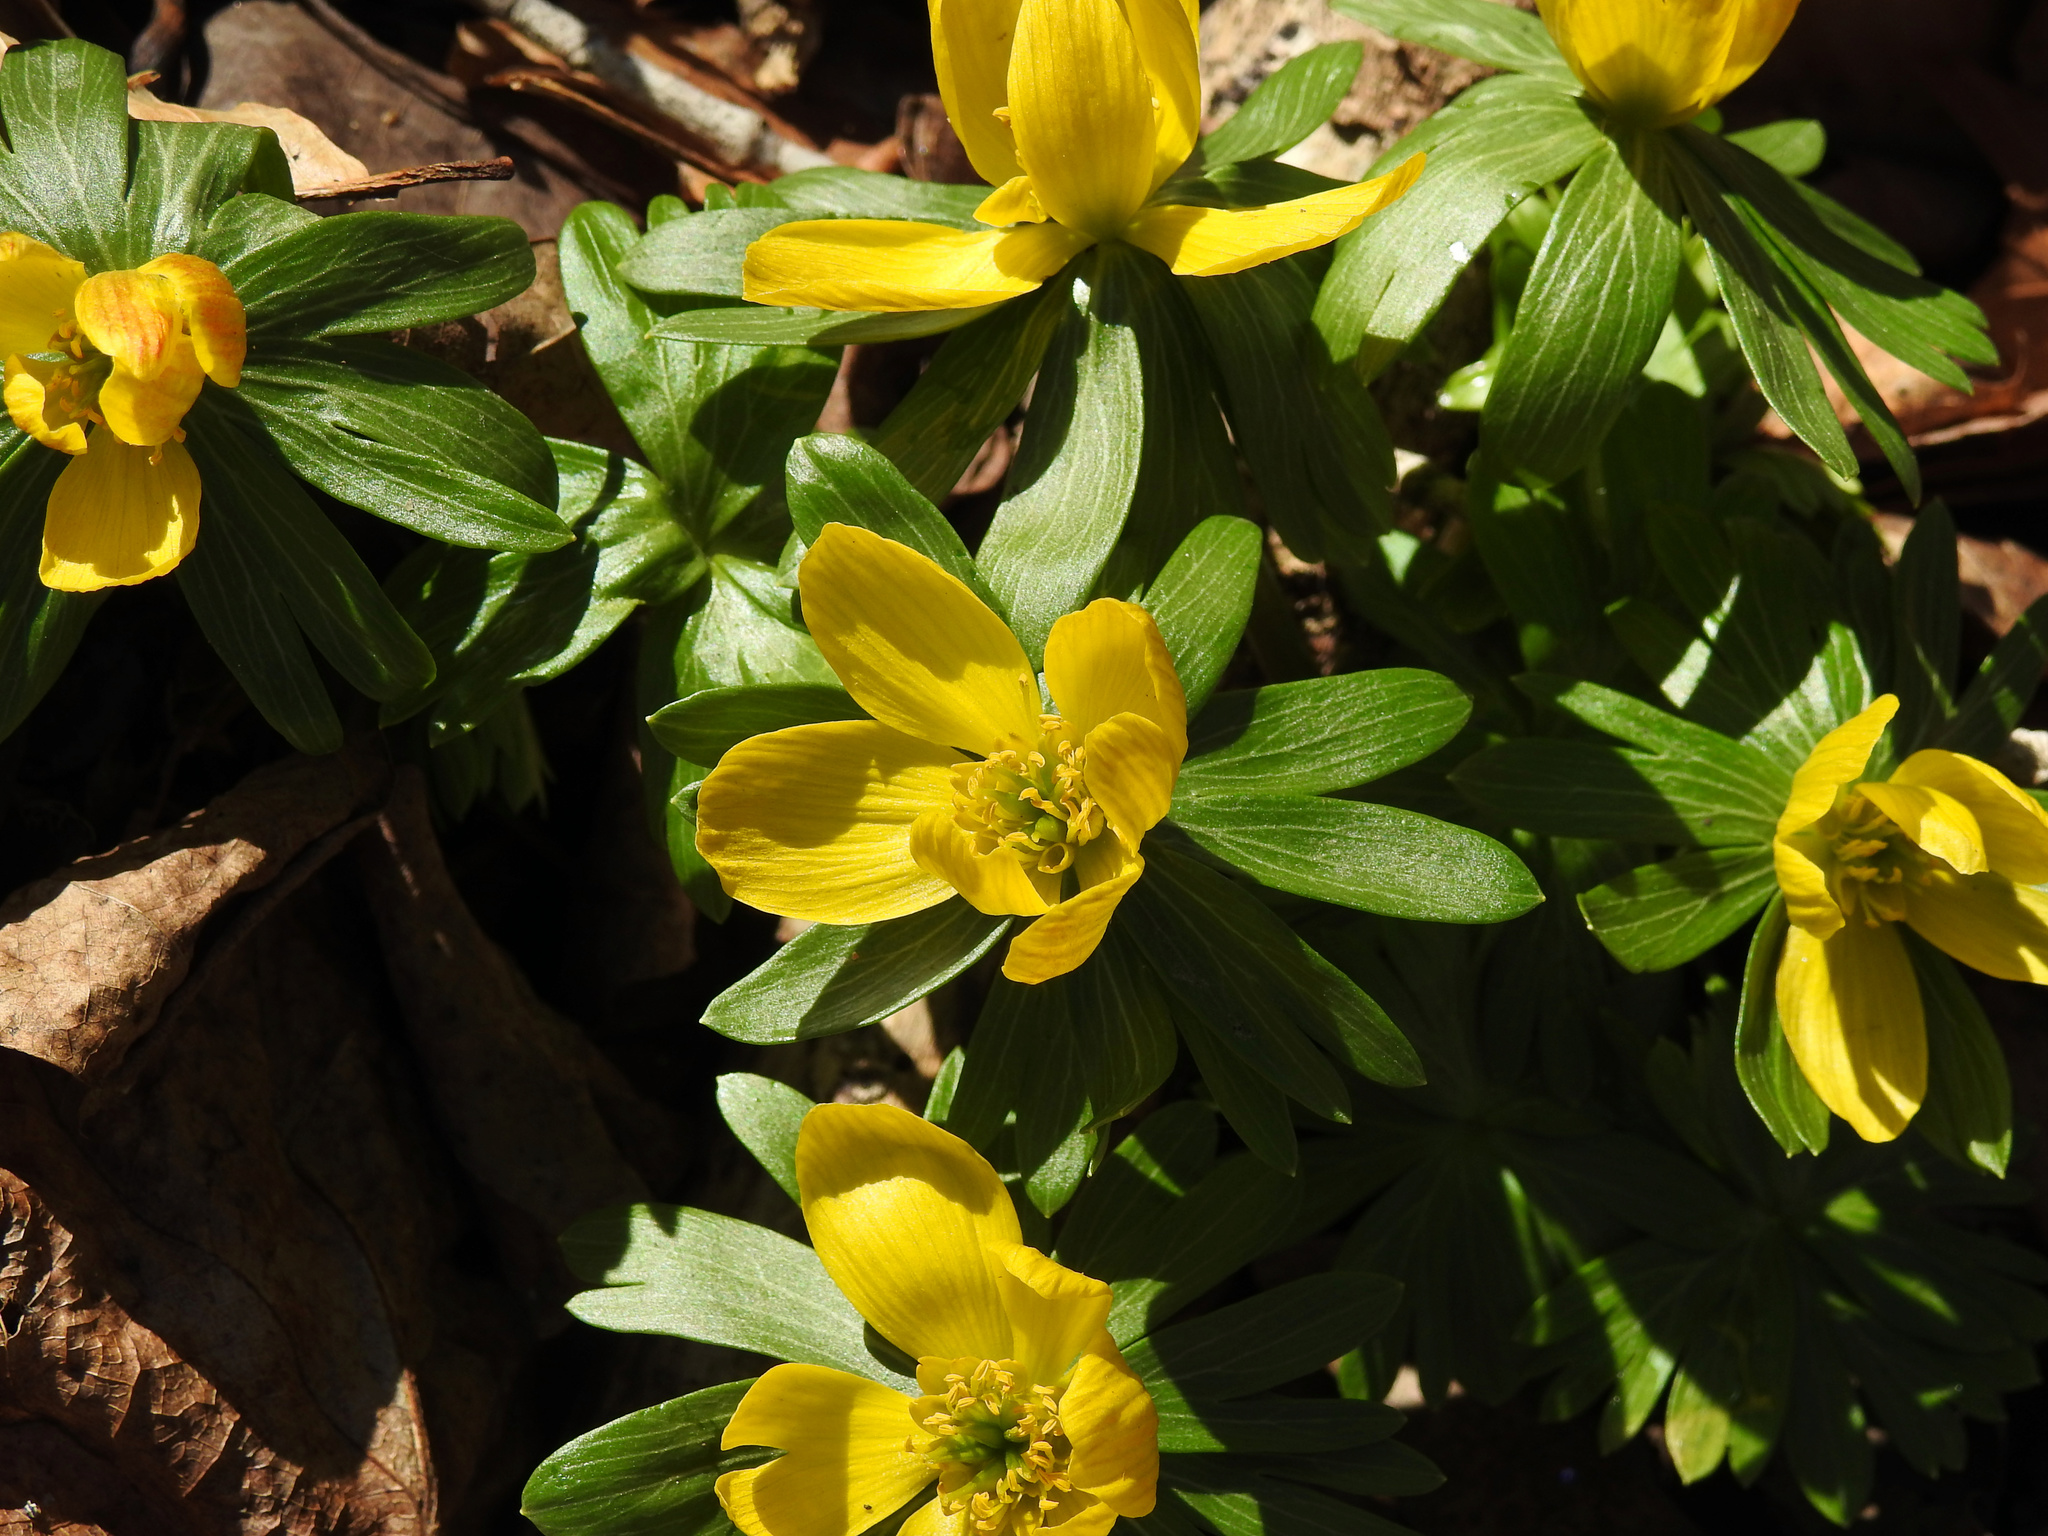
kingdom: Plantae
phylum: Tracheophyta
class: Magnoliopsida
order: Ranunculales
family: Ranunculaceae
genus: Eranthis
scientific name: Eranthis hyemalis
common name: Winter aconite
